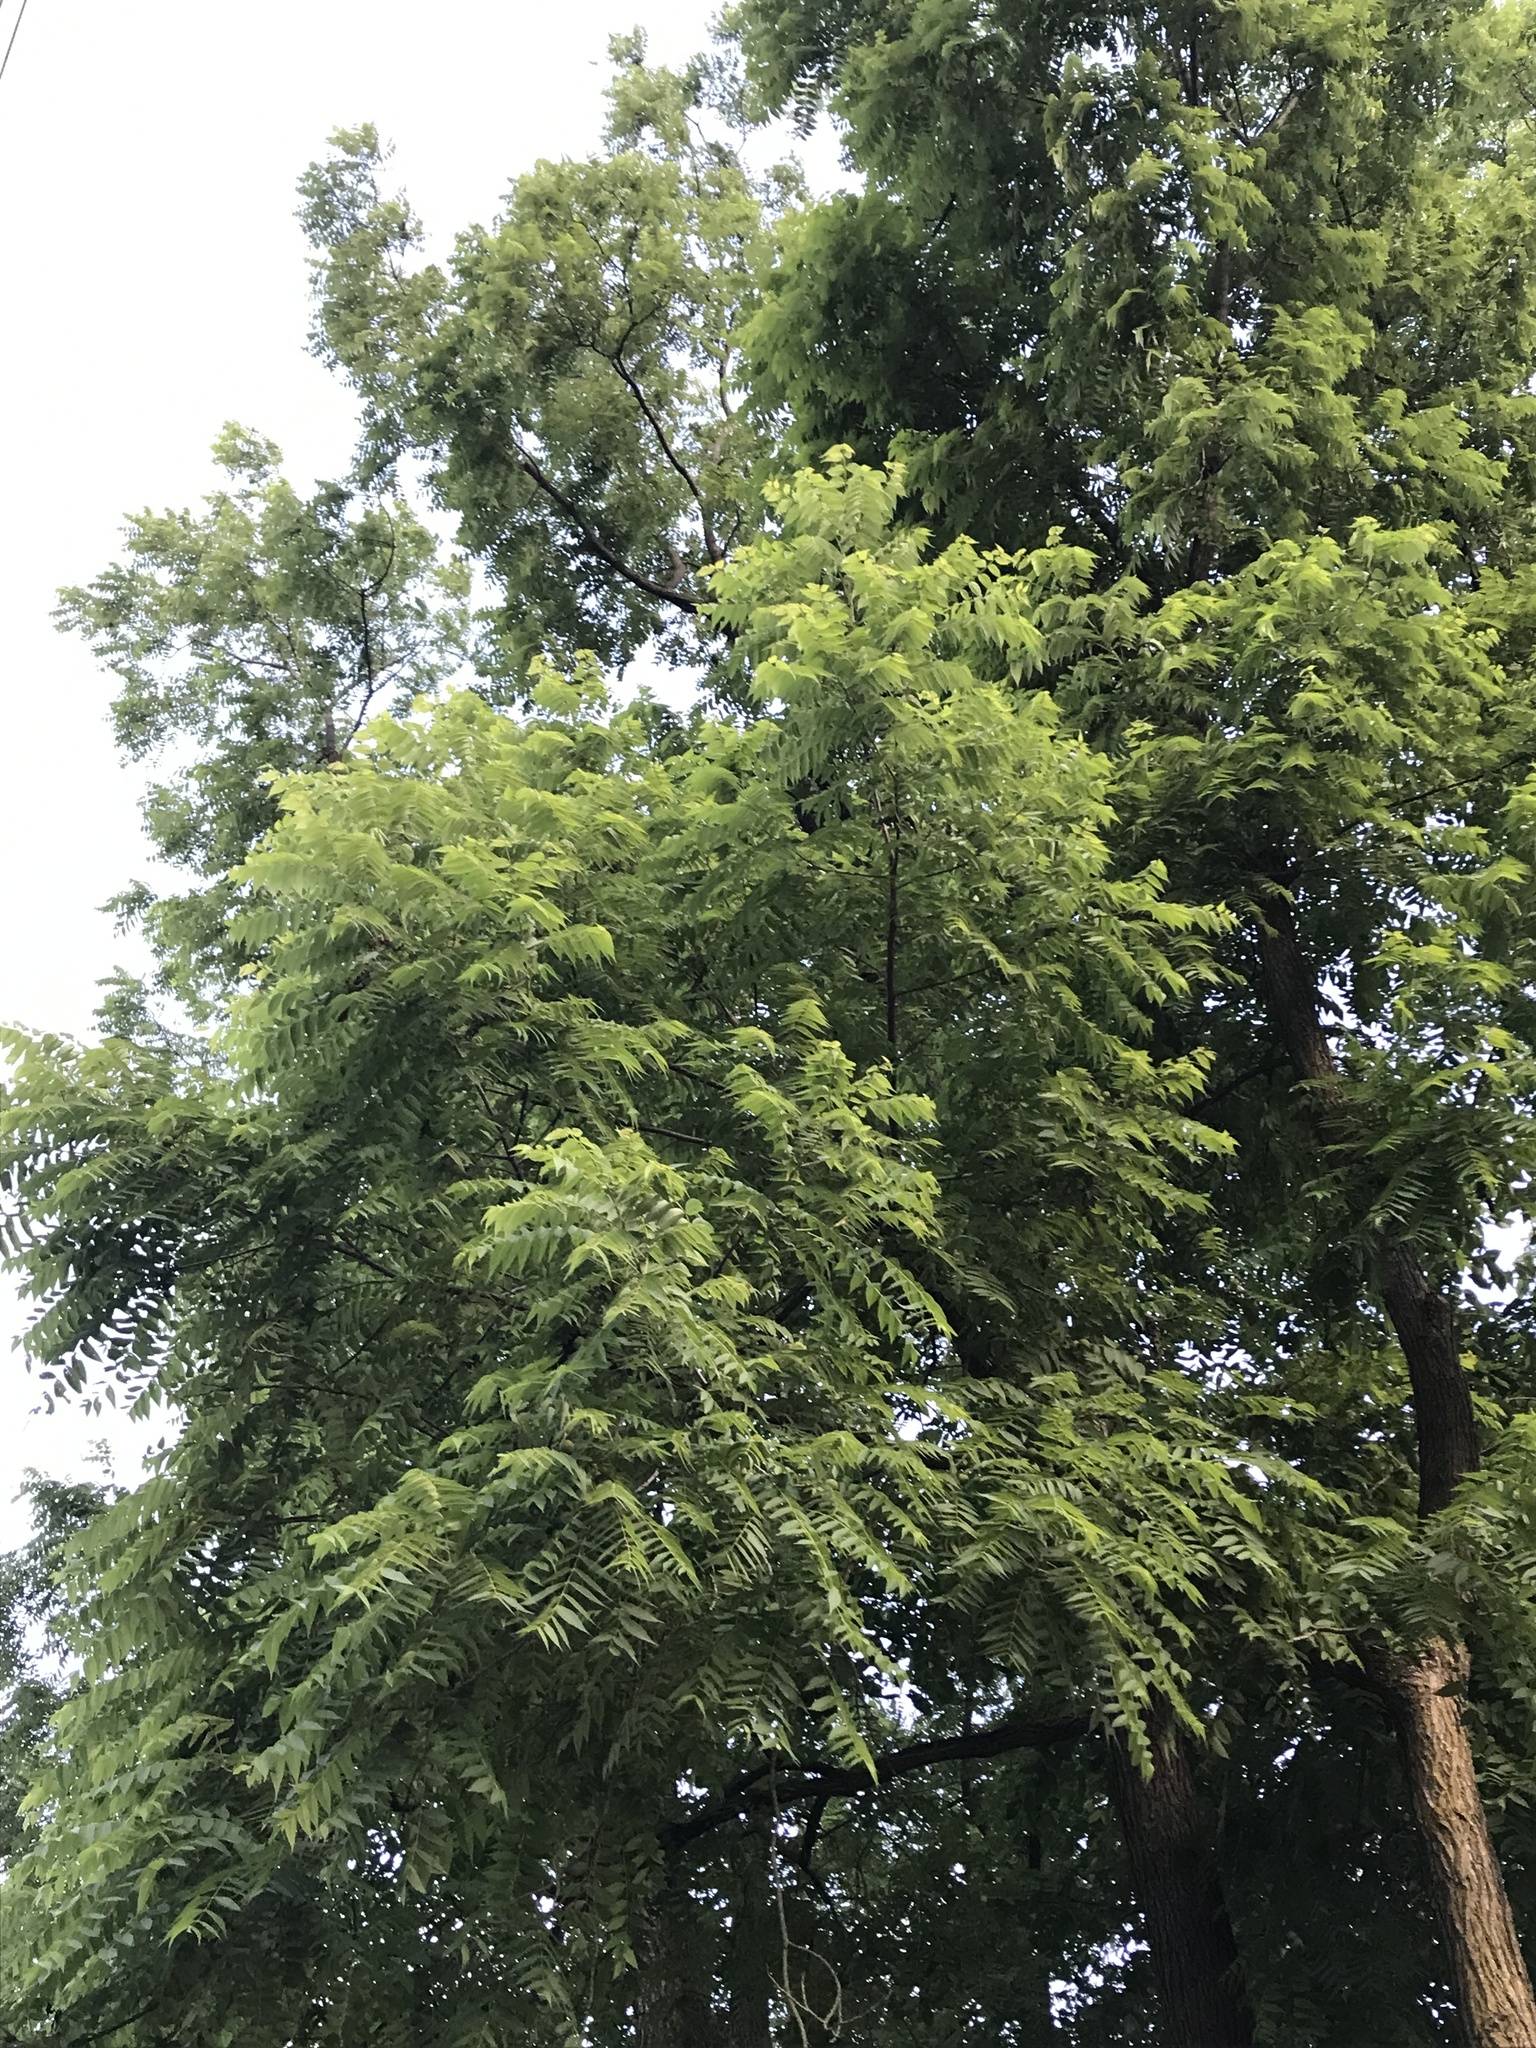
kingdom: Plantae
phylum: Tracheophyta
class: Magnoliopsida
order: Fagales
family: Juglandaceae
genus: Juglans
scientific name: Juglans nigra
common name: Black walnut
